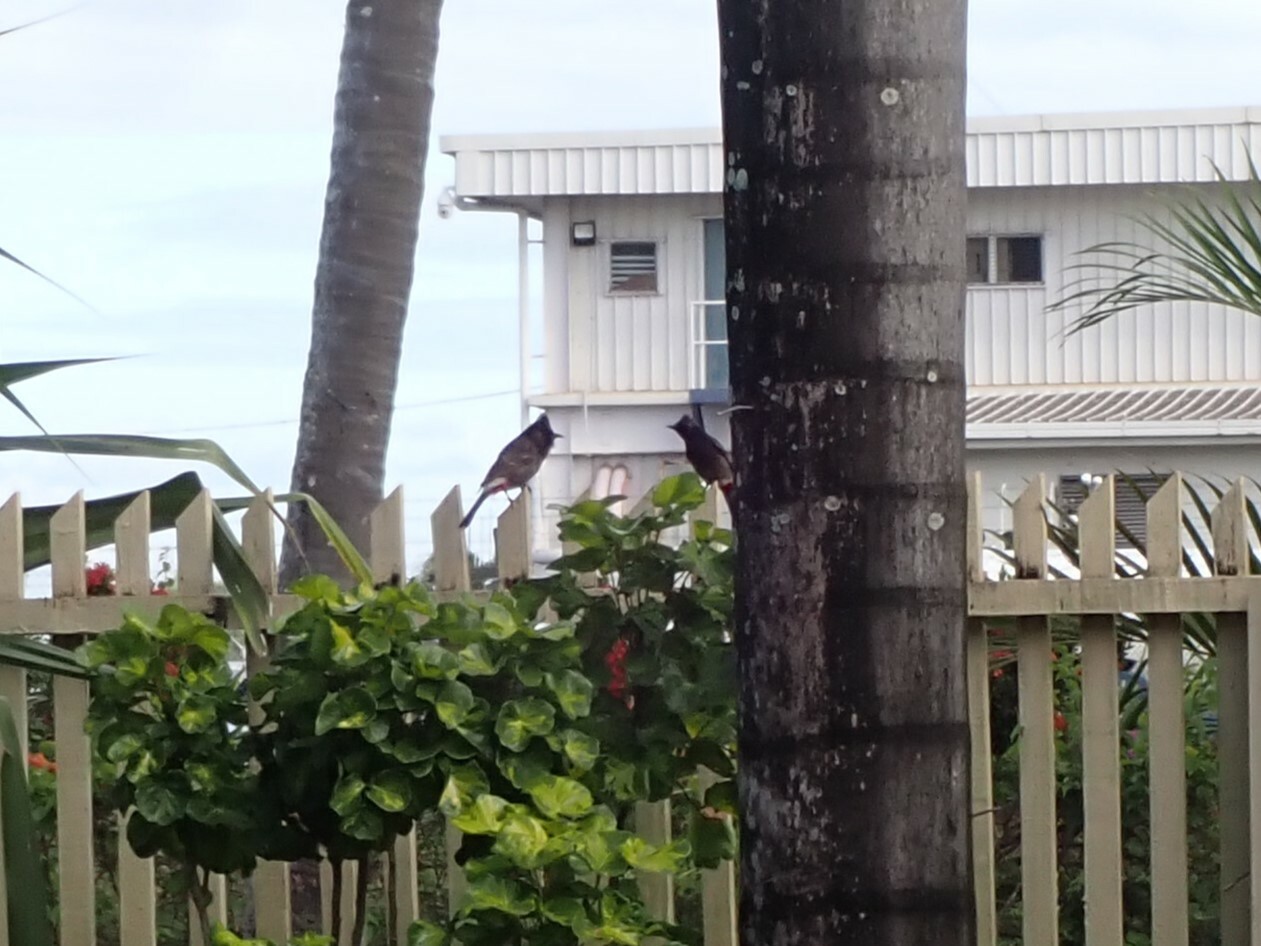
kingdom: Animalia
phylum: Chordata
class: Aves
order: Passeriformes
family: Pycnonotidae
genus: Pycnonotus
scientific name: Pycnonotus cafer
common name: Red-vented bulbul
